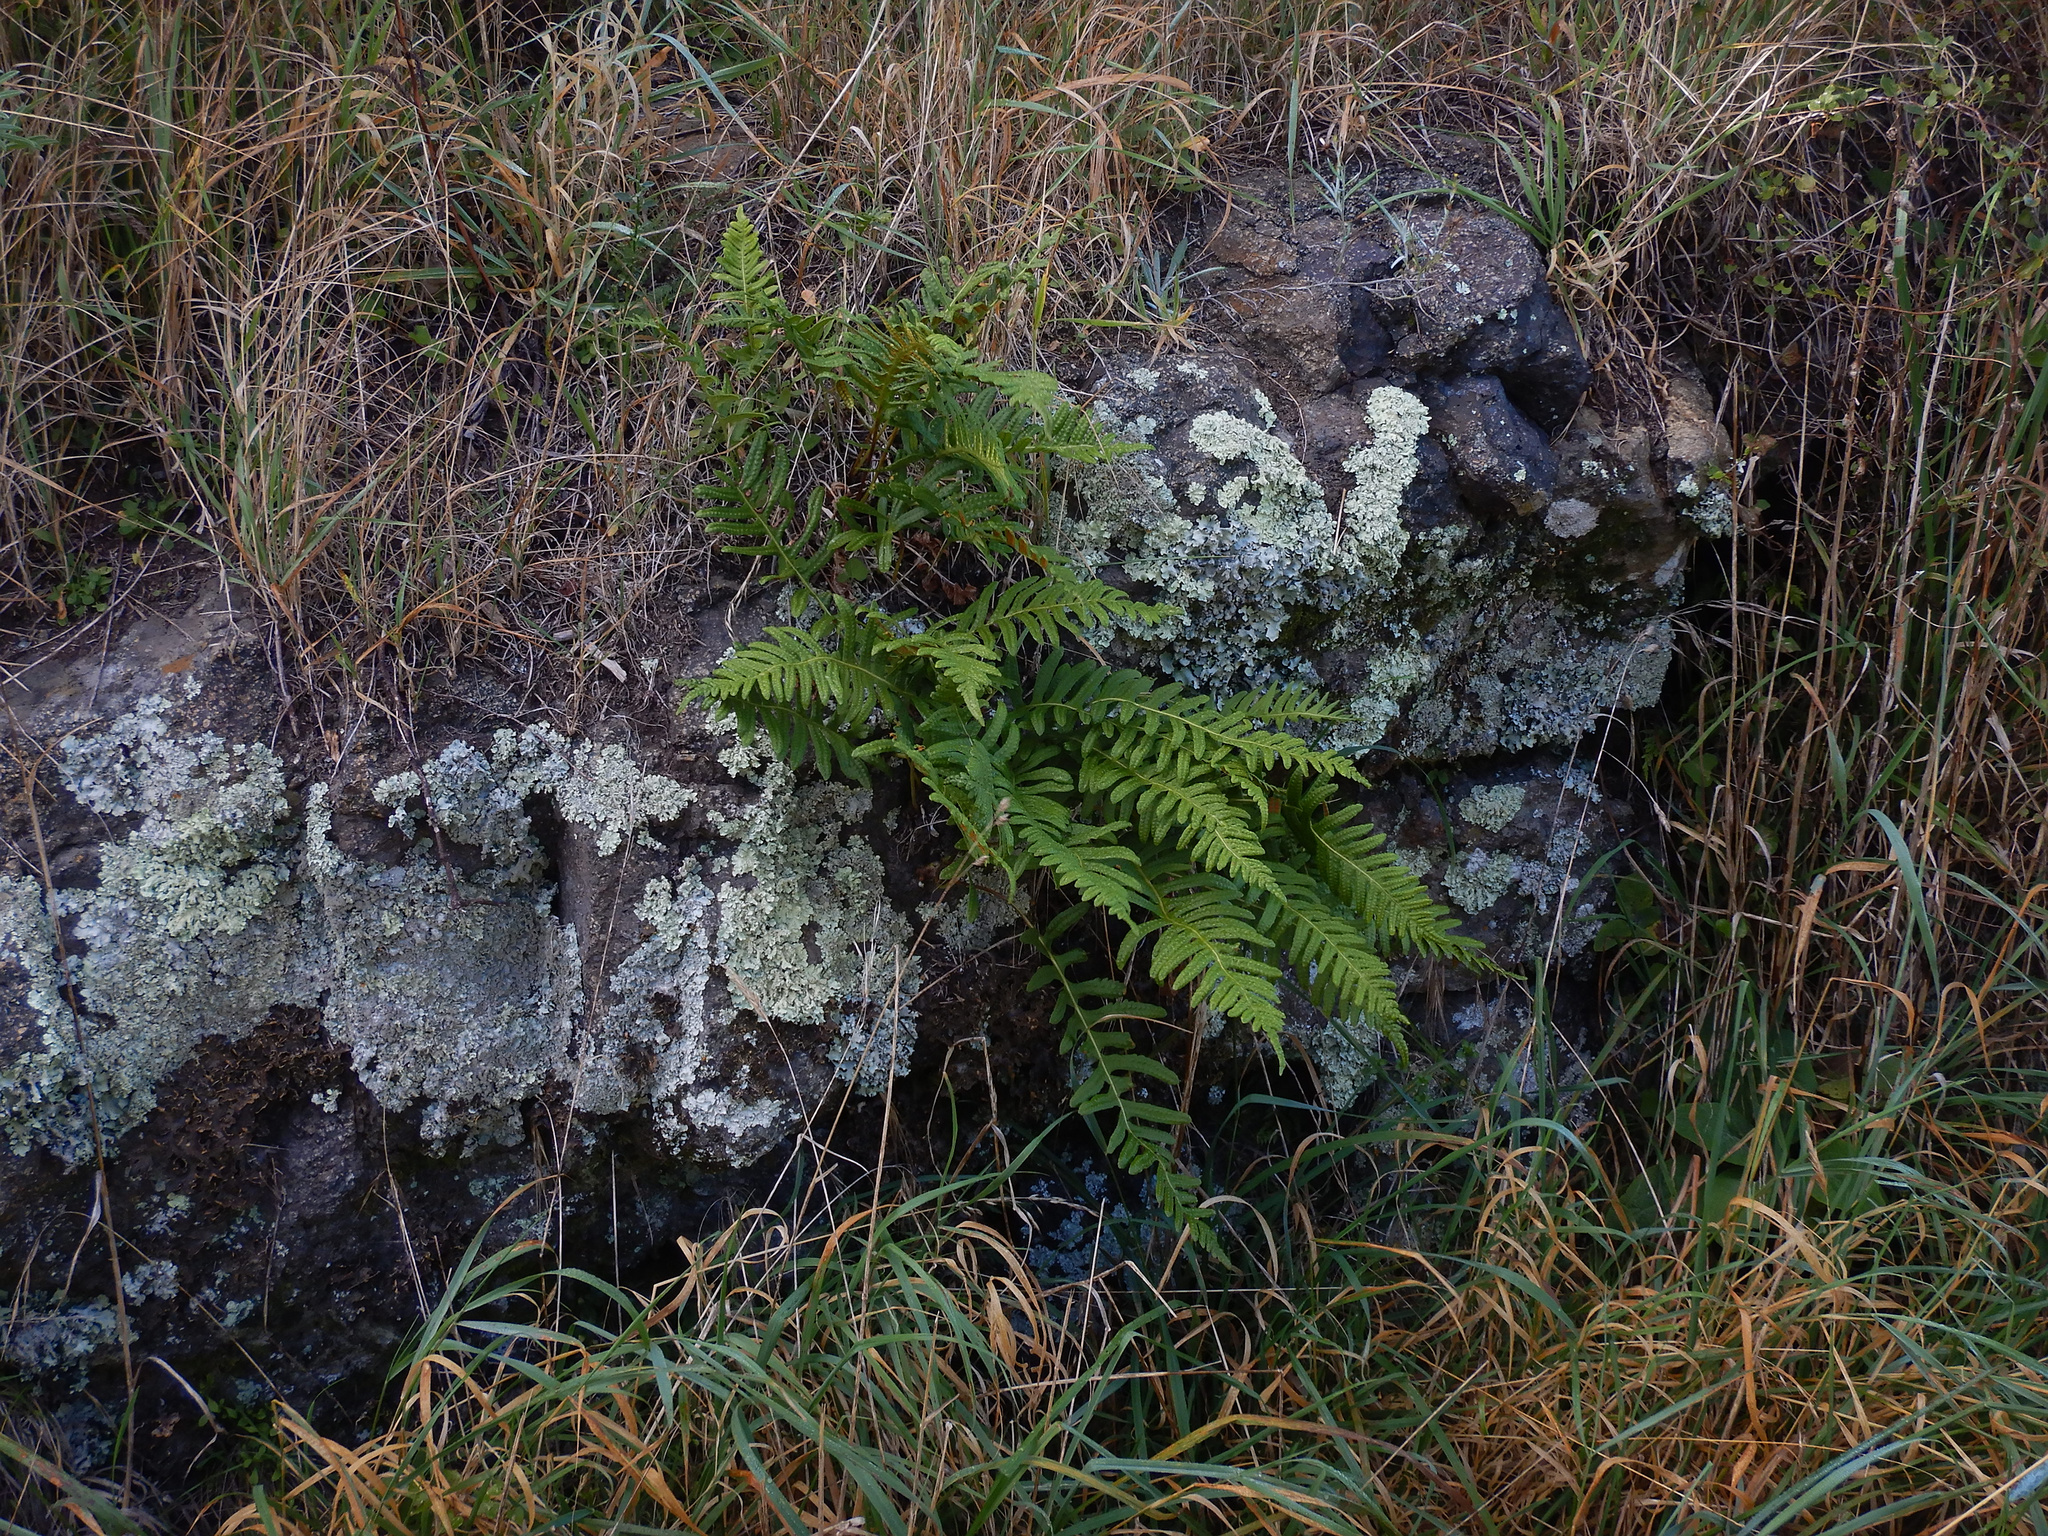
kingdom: Plantae
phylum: Tracheophyta
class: Polypodiopsida
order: Polypodiales
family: Polypodiaceae
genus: Polypodium
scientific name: Polypodium vulgare
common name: Common polypody
